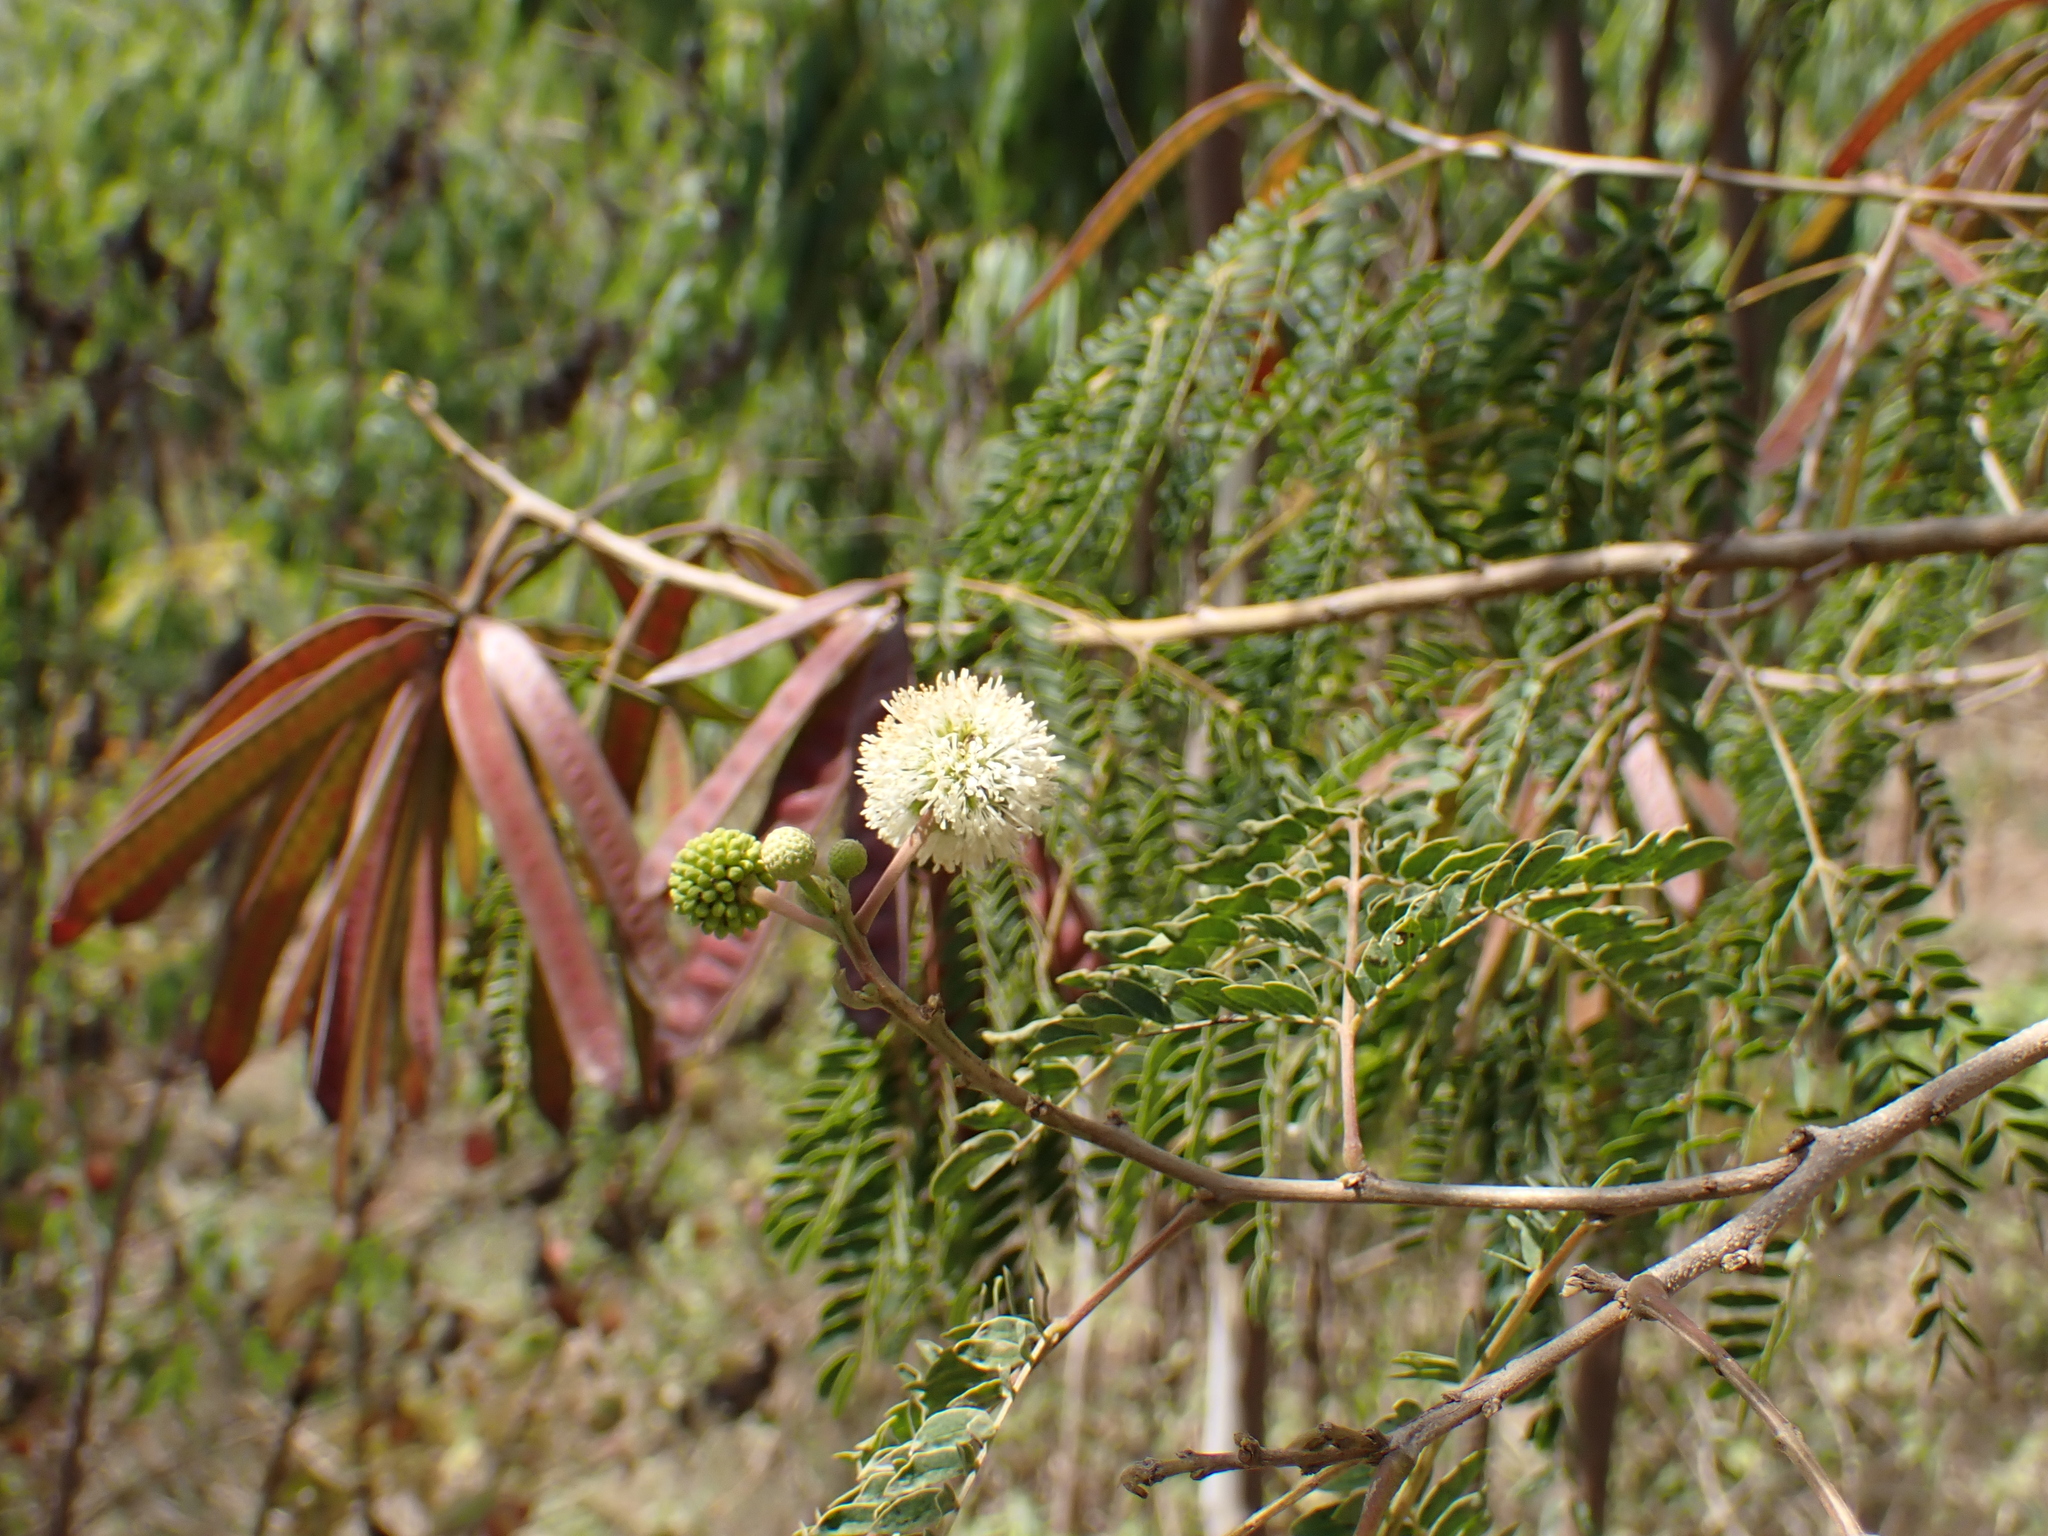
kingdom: Plantae
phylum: Tracheophyta
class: Magnoliopsida
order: Fabales
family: Fabaceae
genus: Leucaena
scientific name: Leucaena leucocephala
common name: White leadtree
